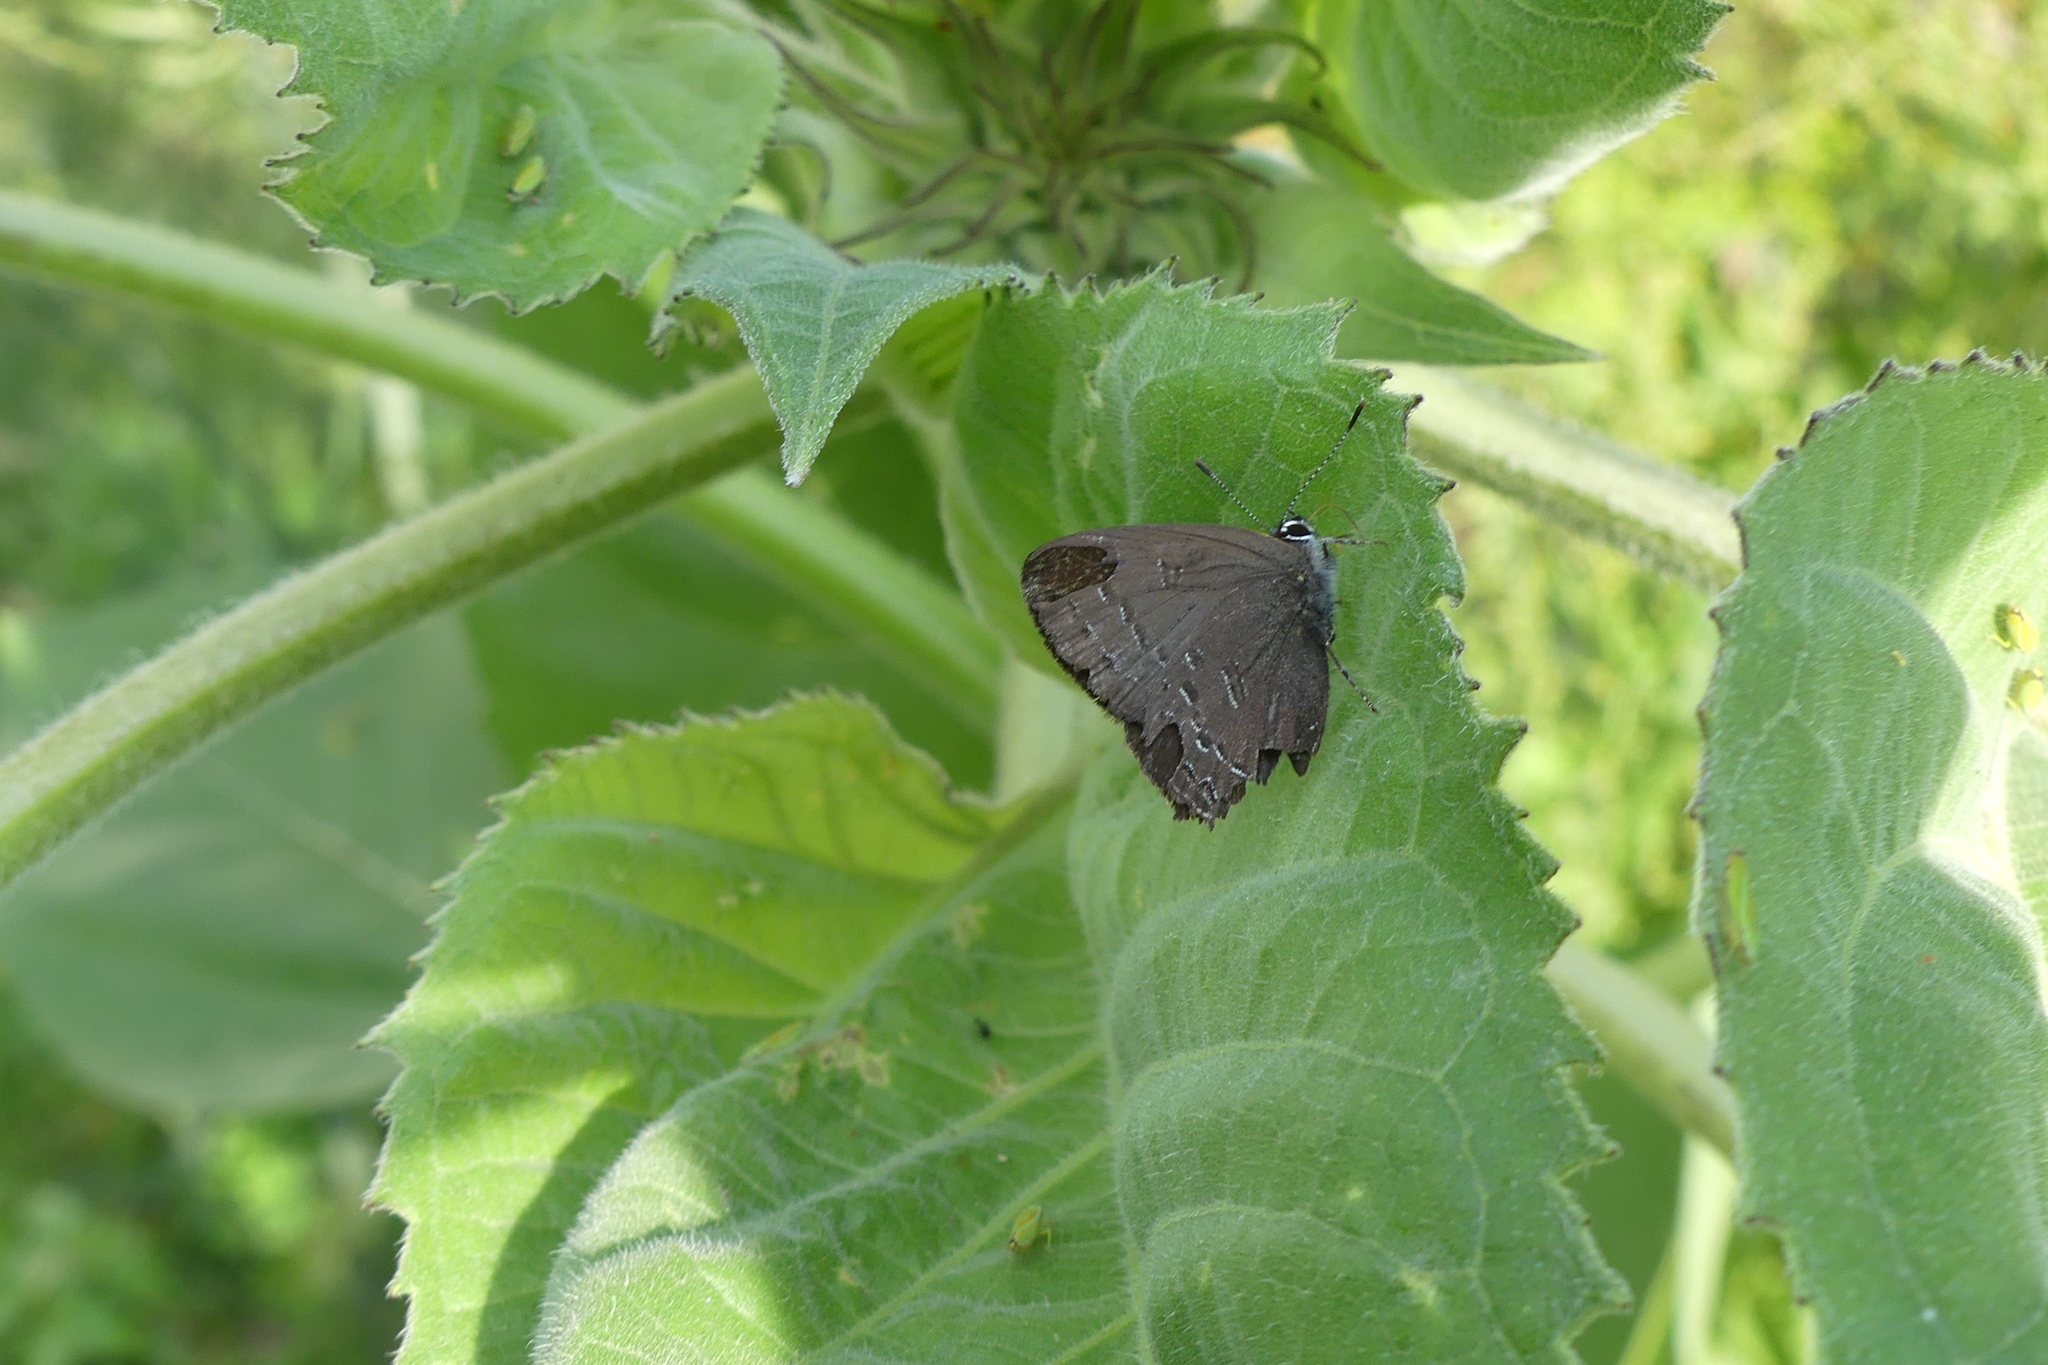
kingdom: Animalia
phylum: Arthropoda
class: Insecta
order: Lepidoptera
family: Lycaenidae
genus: Satyrium
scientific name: Satyrium calanus
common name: Banded hairstreak
